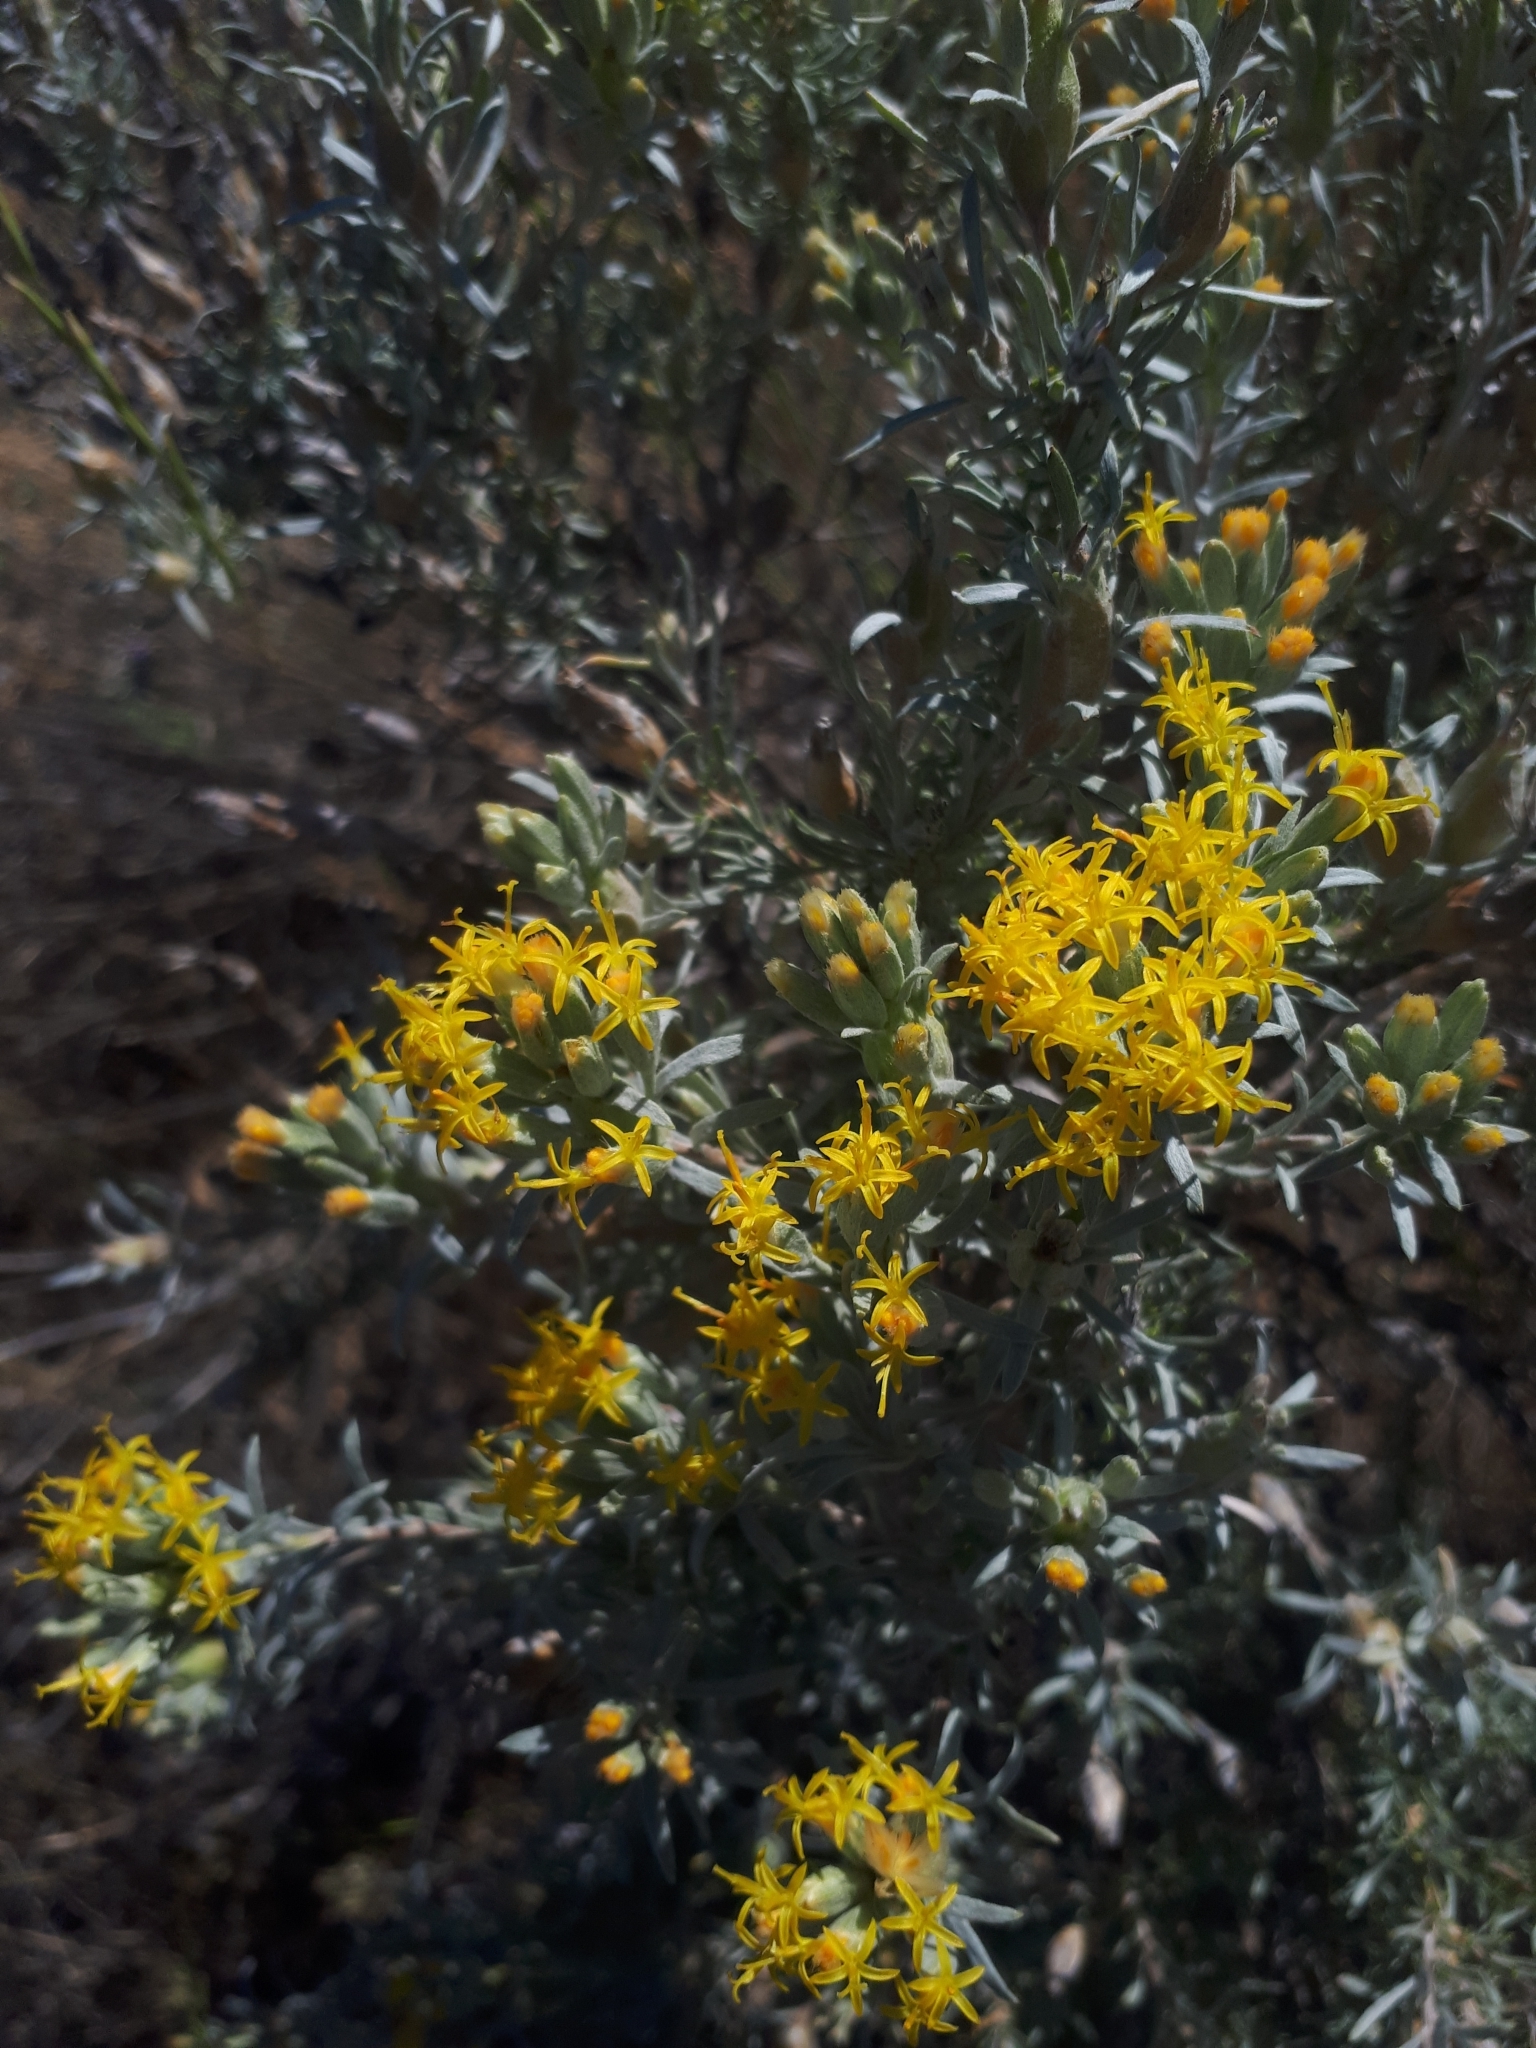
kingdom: Plantae
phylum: Tracheophyta
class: Magnoliopsida
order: Asterales
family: Asteraceae
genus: Tetradymia
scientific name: Tetradymia canescens
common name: Spineless horsebrush
